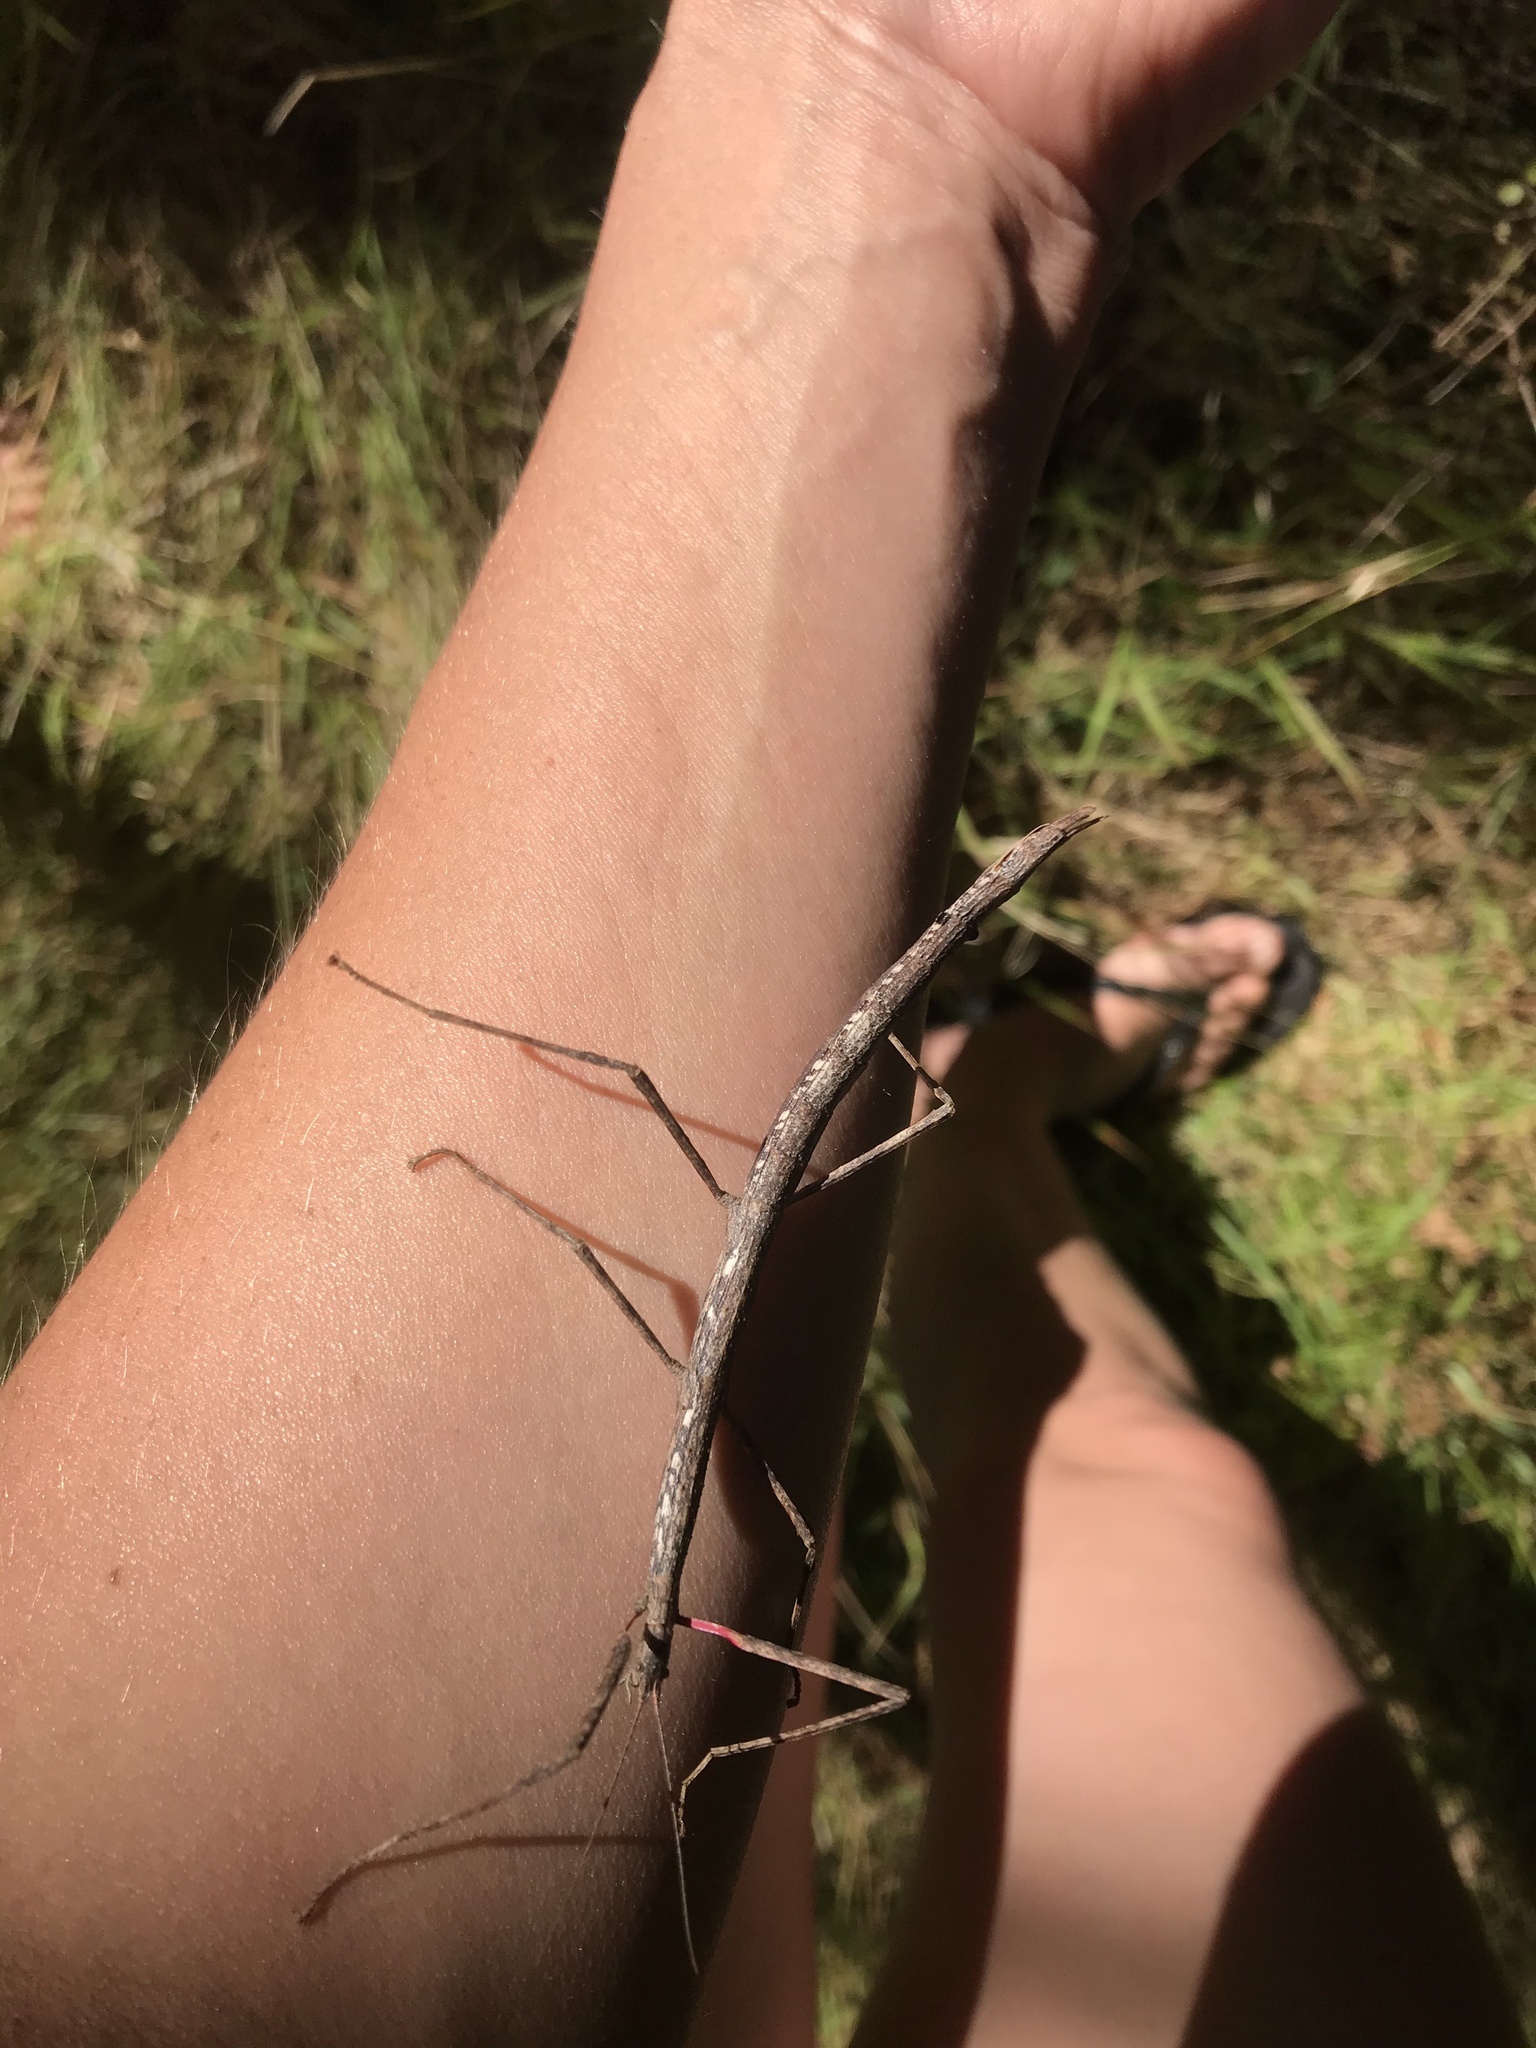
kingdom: Animalia
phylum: Arthropoda
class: Insecta
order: Phasmida
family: Phasmatidae
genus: Clitarchus
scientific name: Clitarchus hookeri
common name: Smooth stick insect
